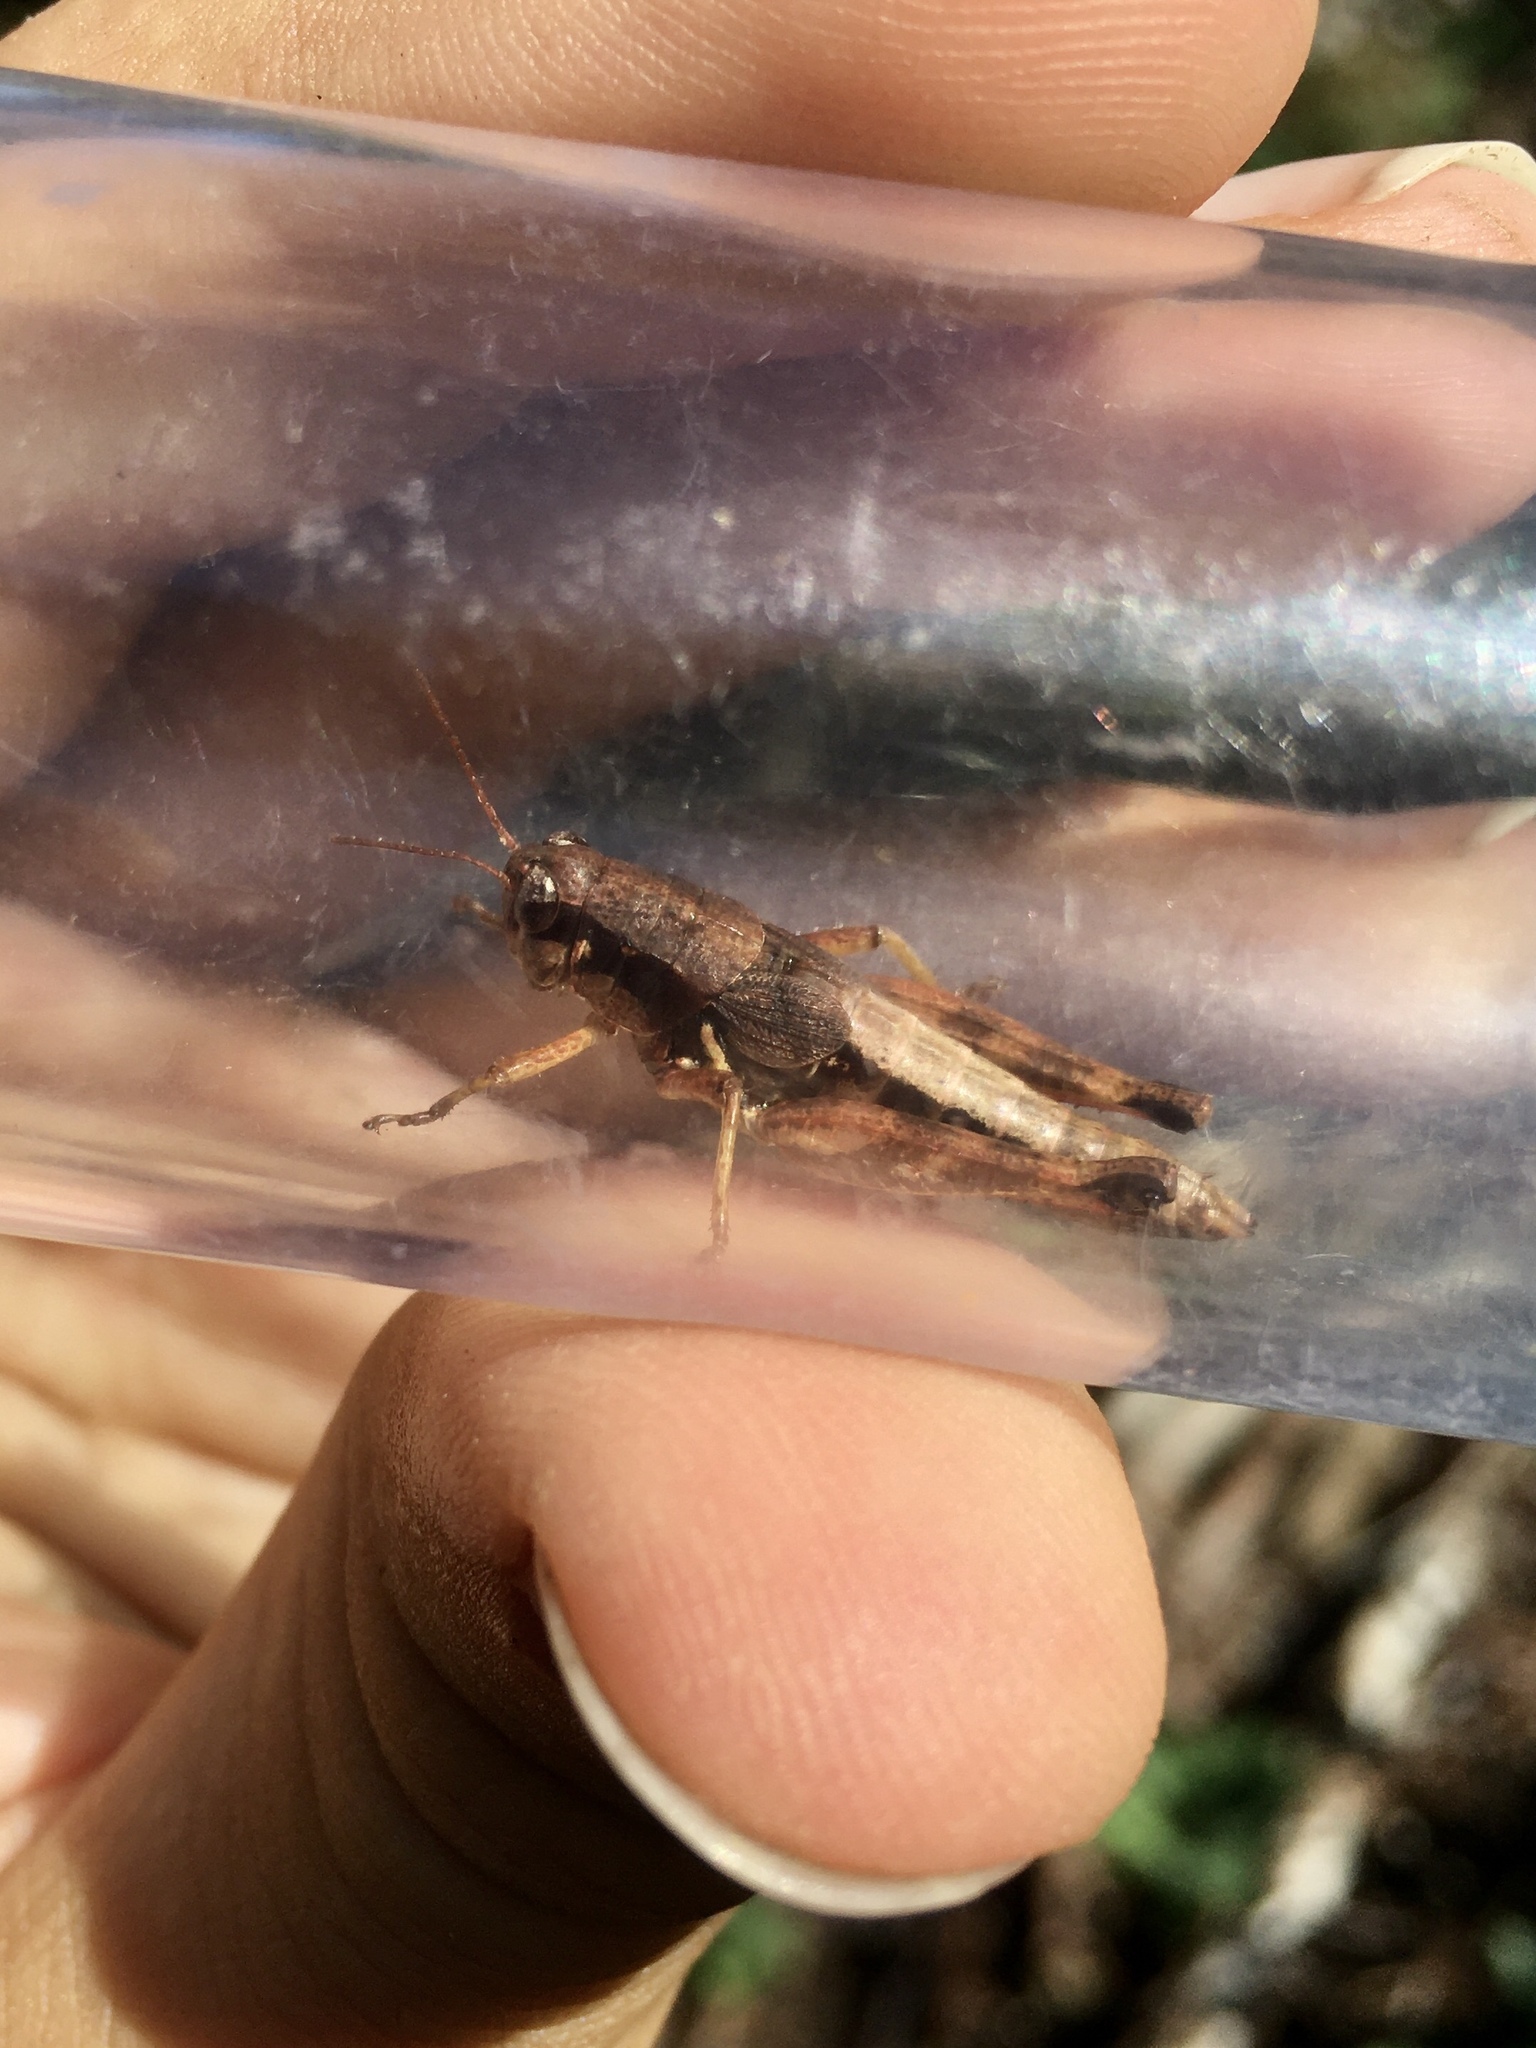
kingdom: Animalia
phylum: Arthropoda
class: Insecta
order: Orthoptera
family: Acrididae
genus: Melanoplus
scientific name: Melanoplus islandicus
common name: Island locust
